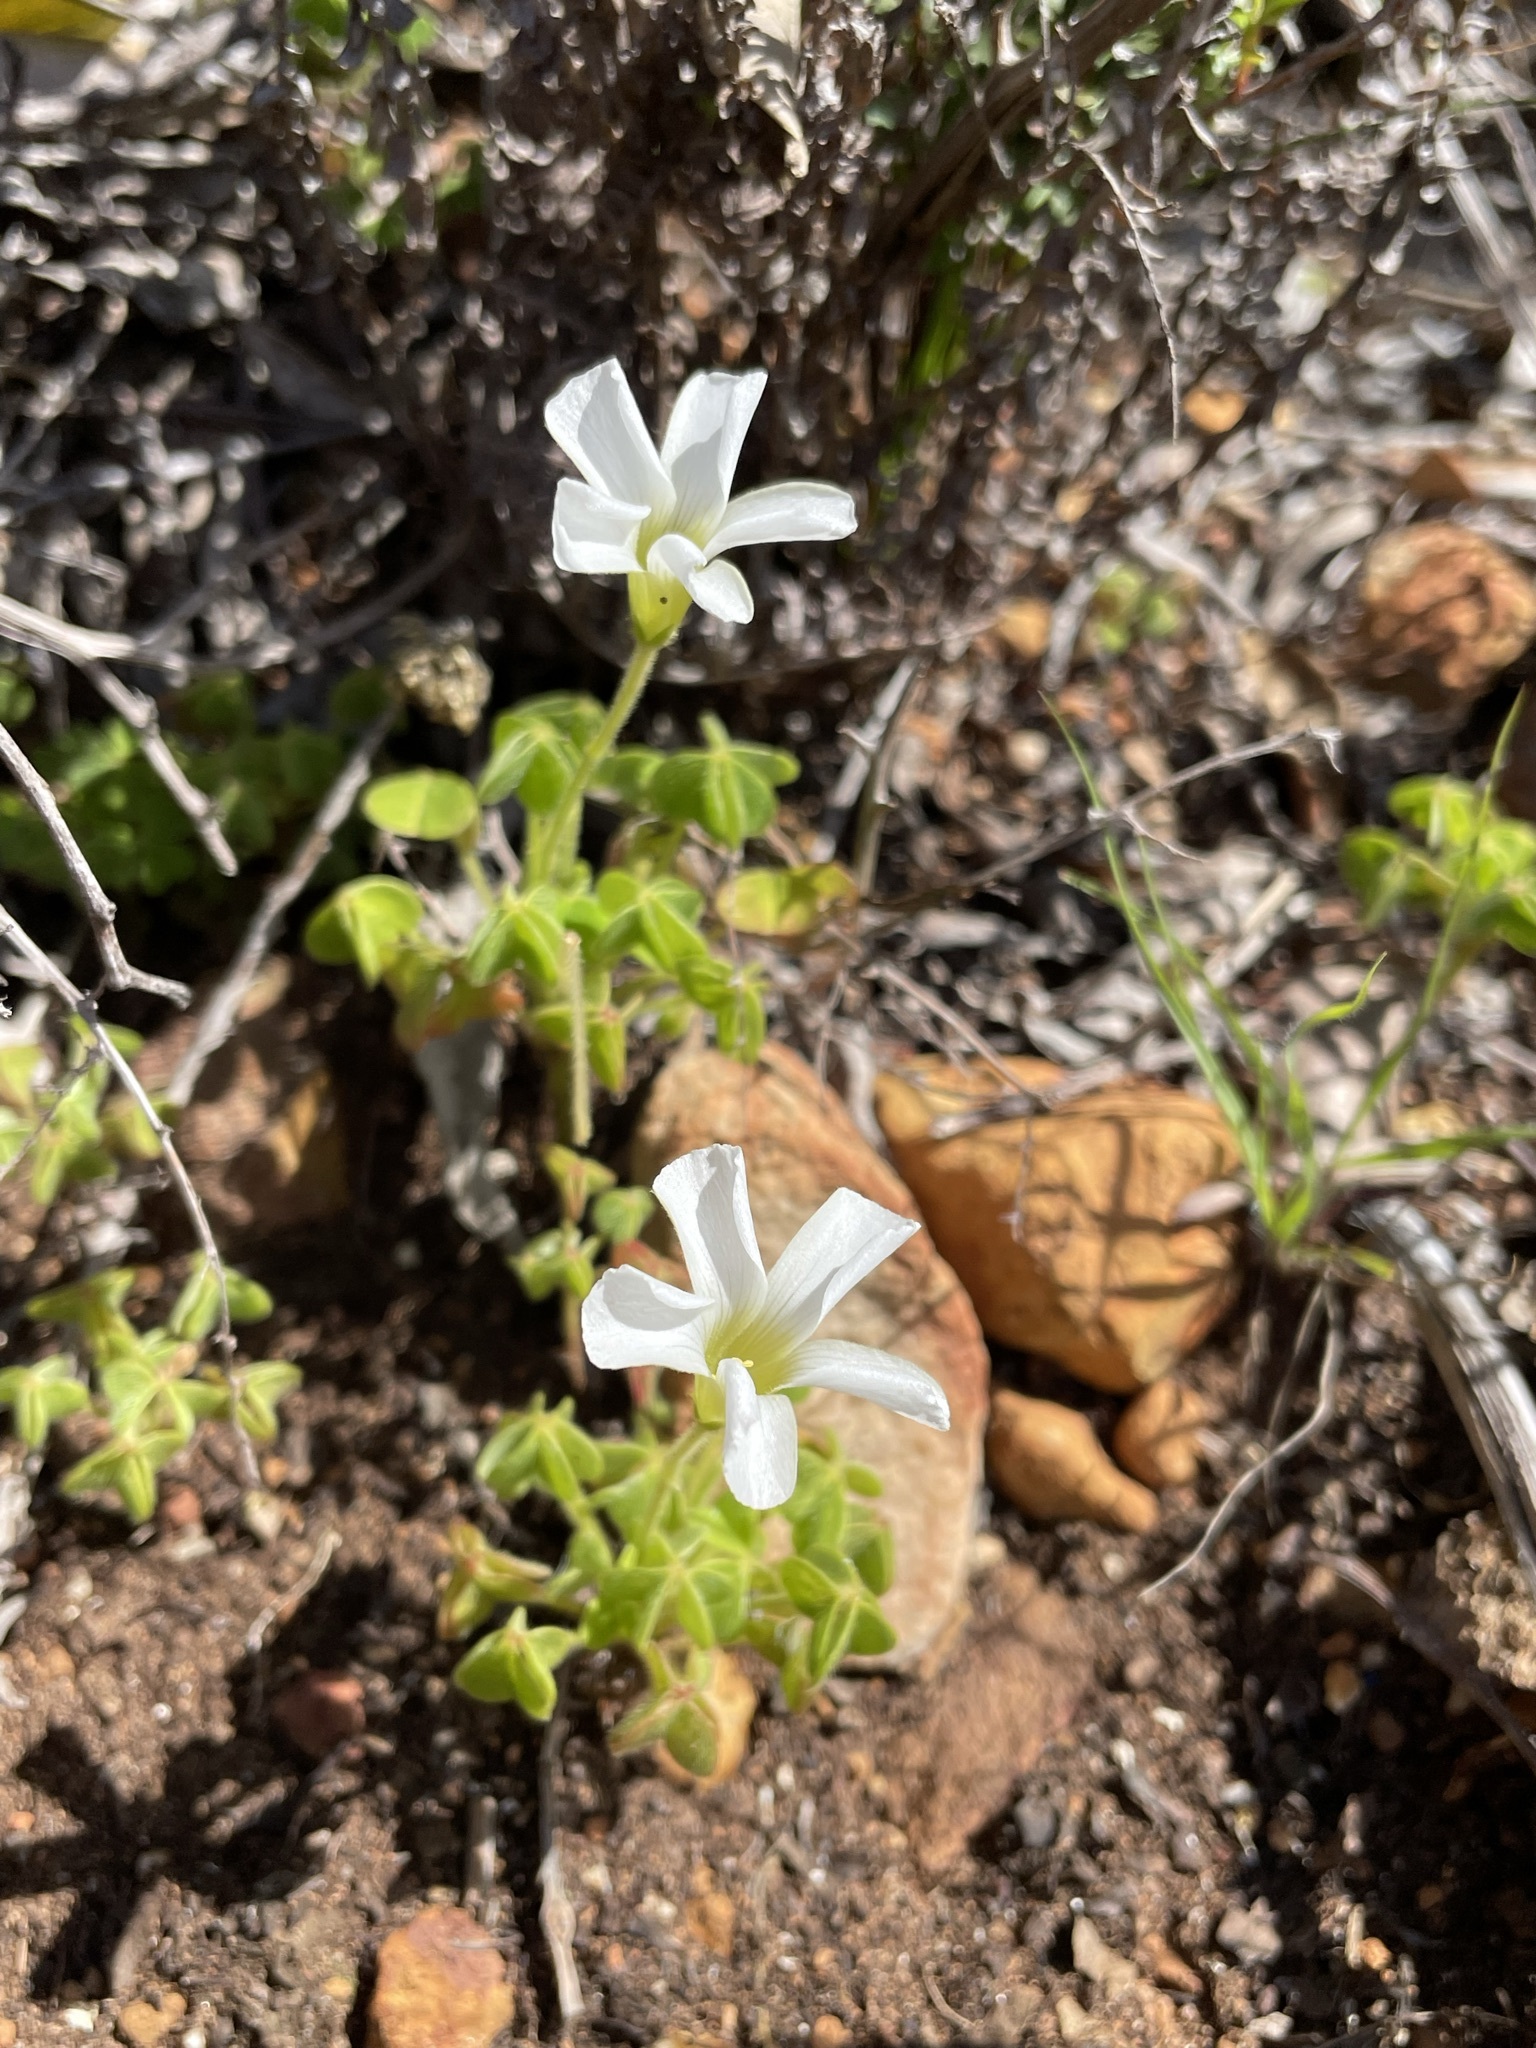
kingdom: Plantae
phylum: Tracheophyta
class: Magnoliopsida
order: Oxalidales
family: Oxalidaceae
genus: Oxalis
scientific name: Oxalis lanata
